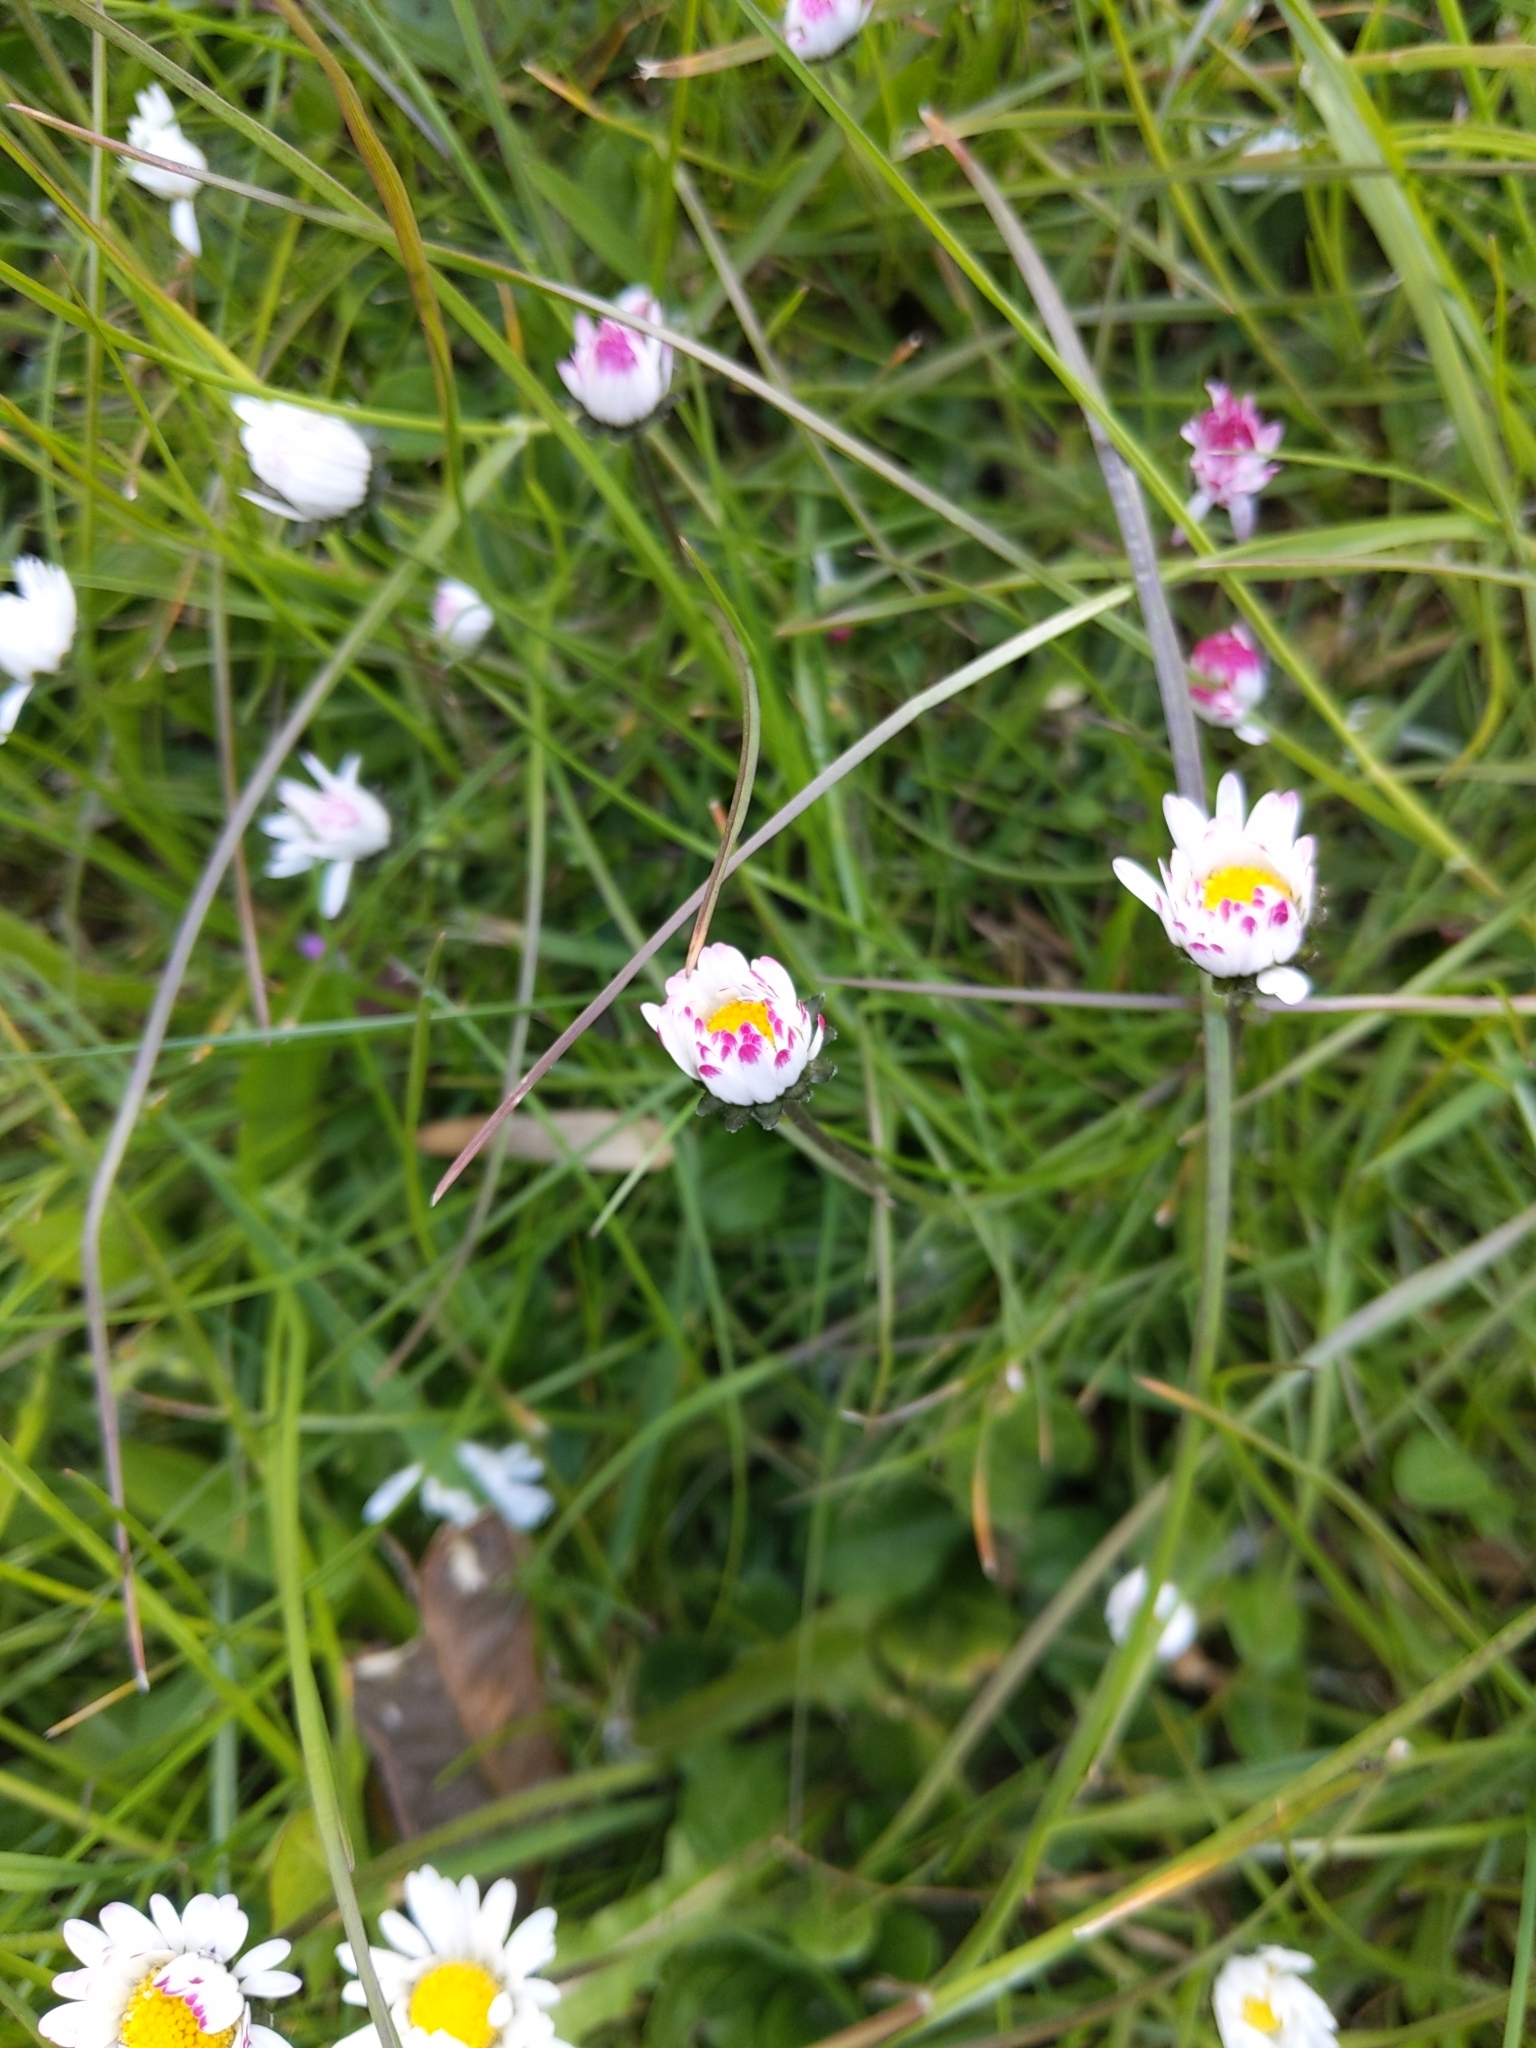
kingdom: Plantae
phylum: Tracheophyta
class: Magnoliopsida
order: Asterales
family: Asteraceae
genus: Bellis
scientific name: Bellis perennis
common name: Lawndaisy
